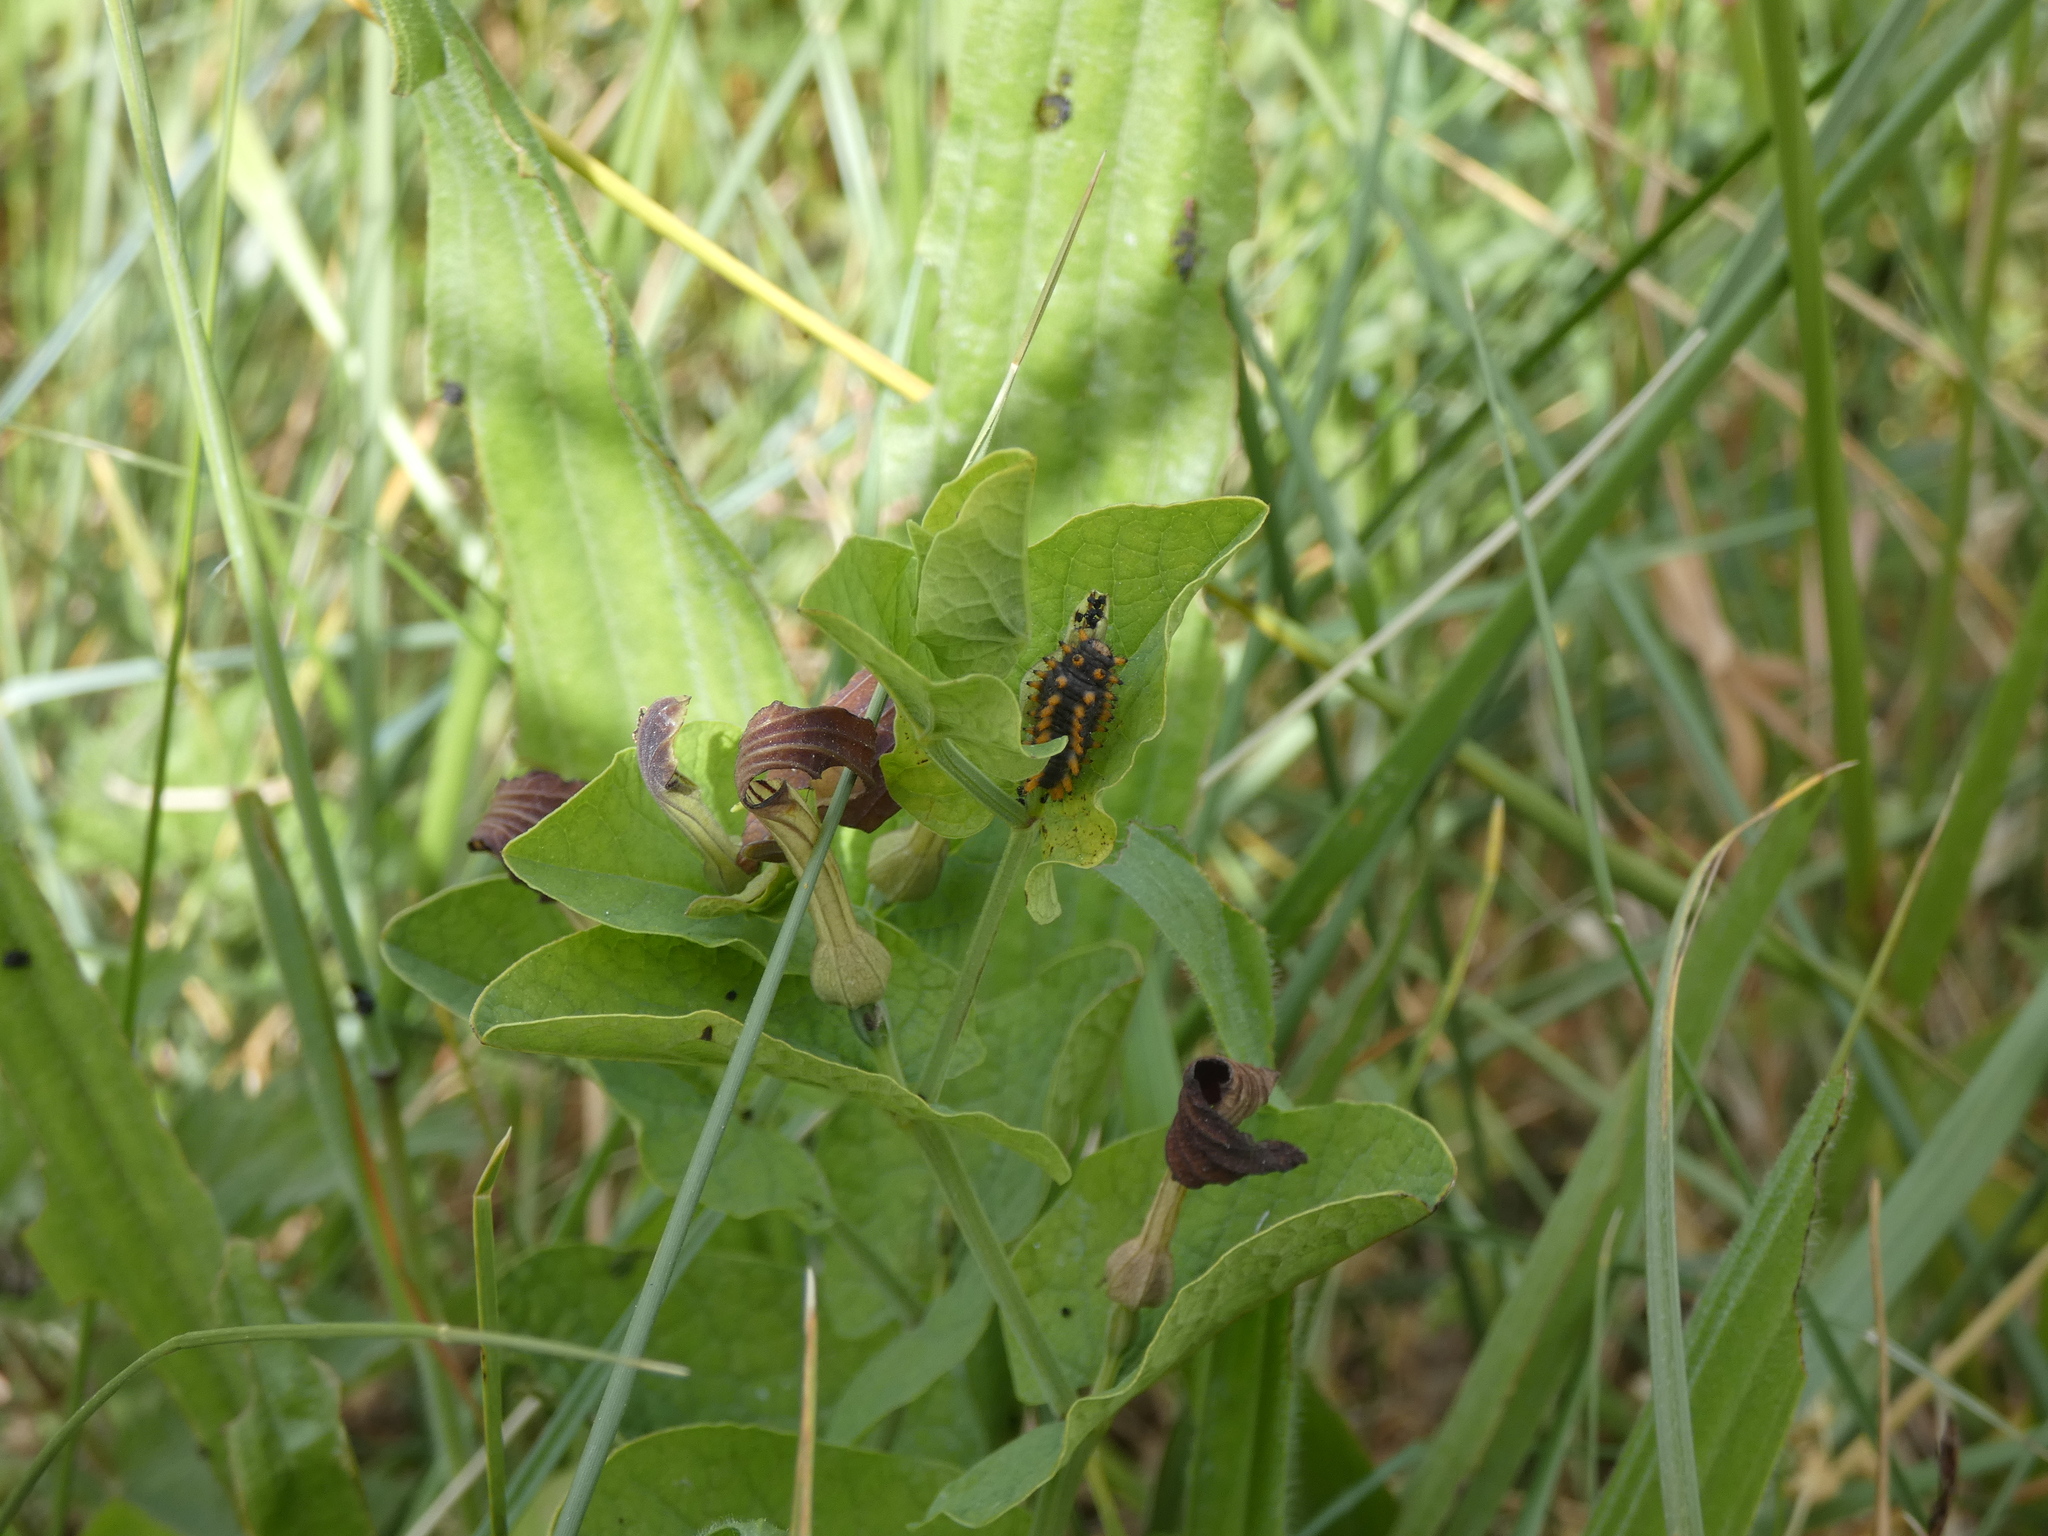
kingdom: Animalia
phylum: Arthropoda
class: Insecta
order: Lepidoptera
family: Papilionidae
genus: Zerynthia
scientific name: Zerynthia polyxena
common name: Southern festoon
